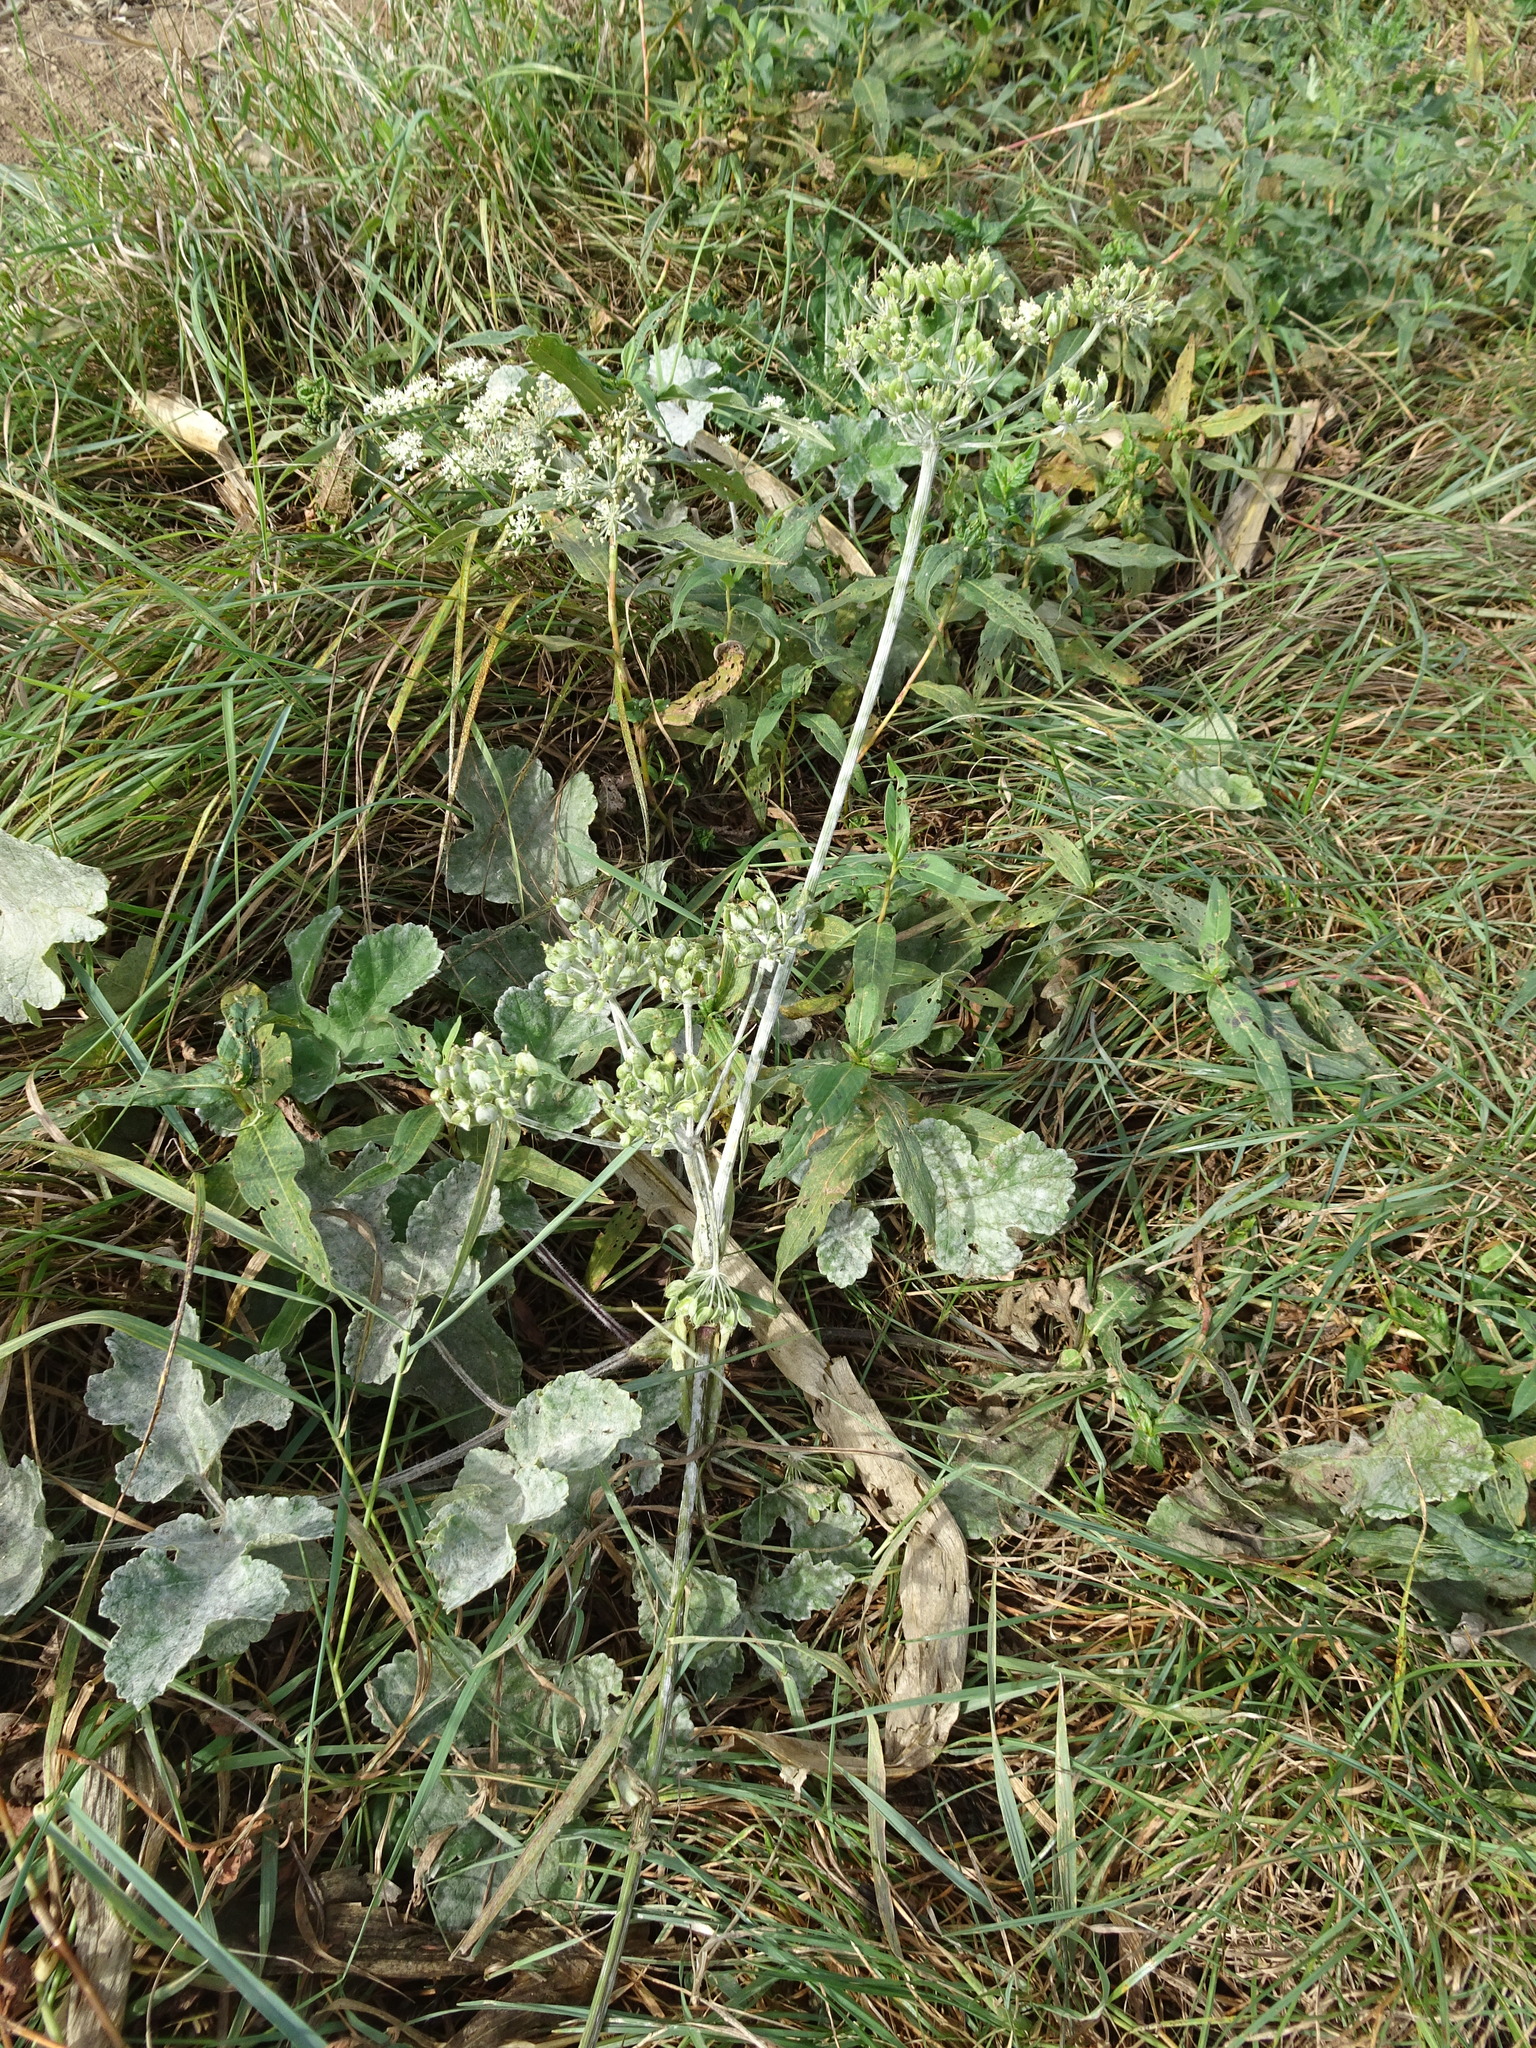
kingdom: Plantae
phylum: Tracheophyta
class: Magnoliopsida
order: Apiales
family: Apiaceae
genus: Heracleum
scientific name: Heracleum sphondylium
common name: Hogweed
